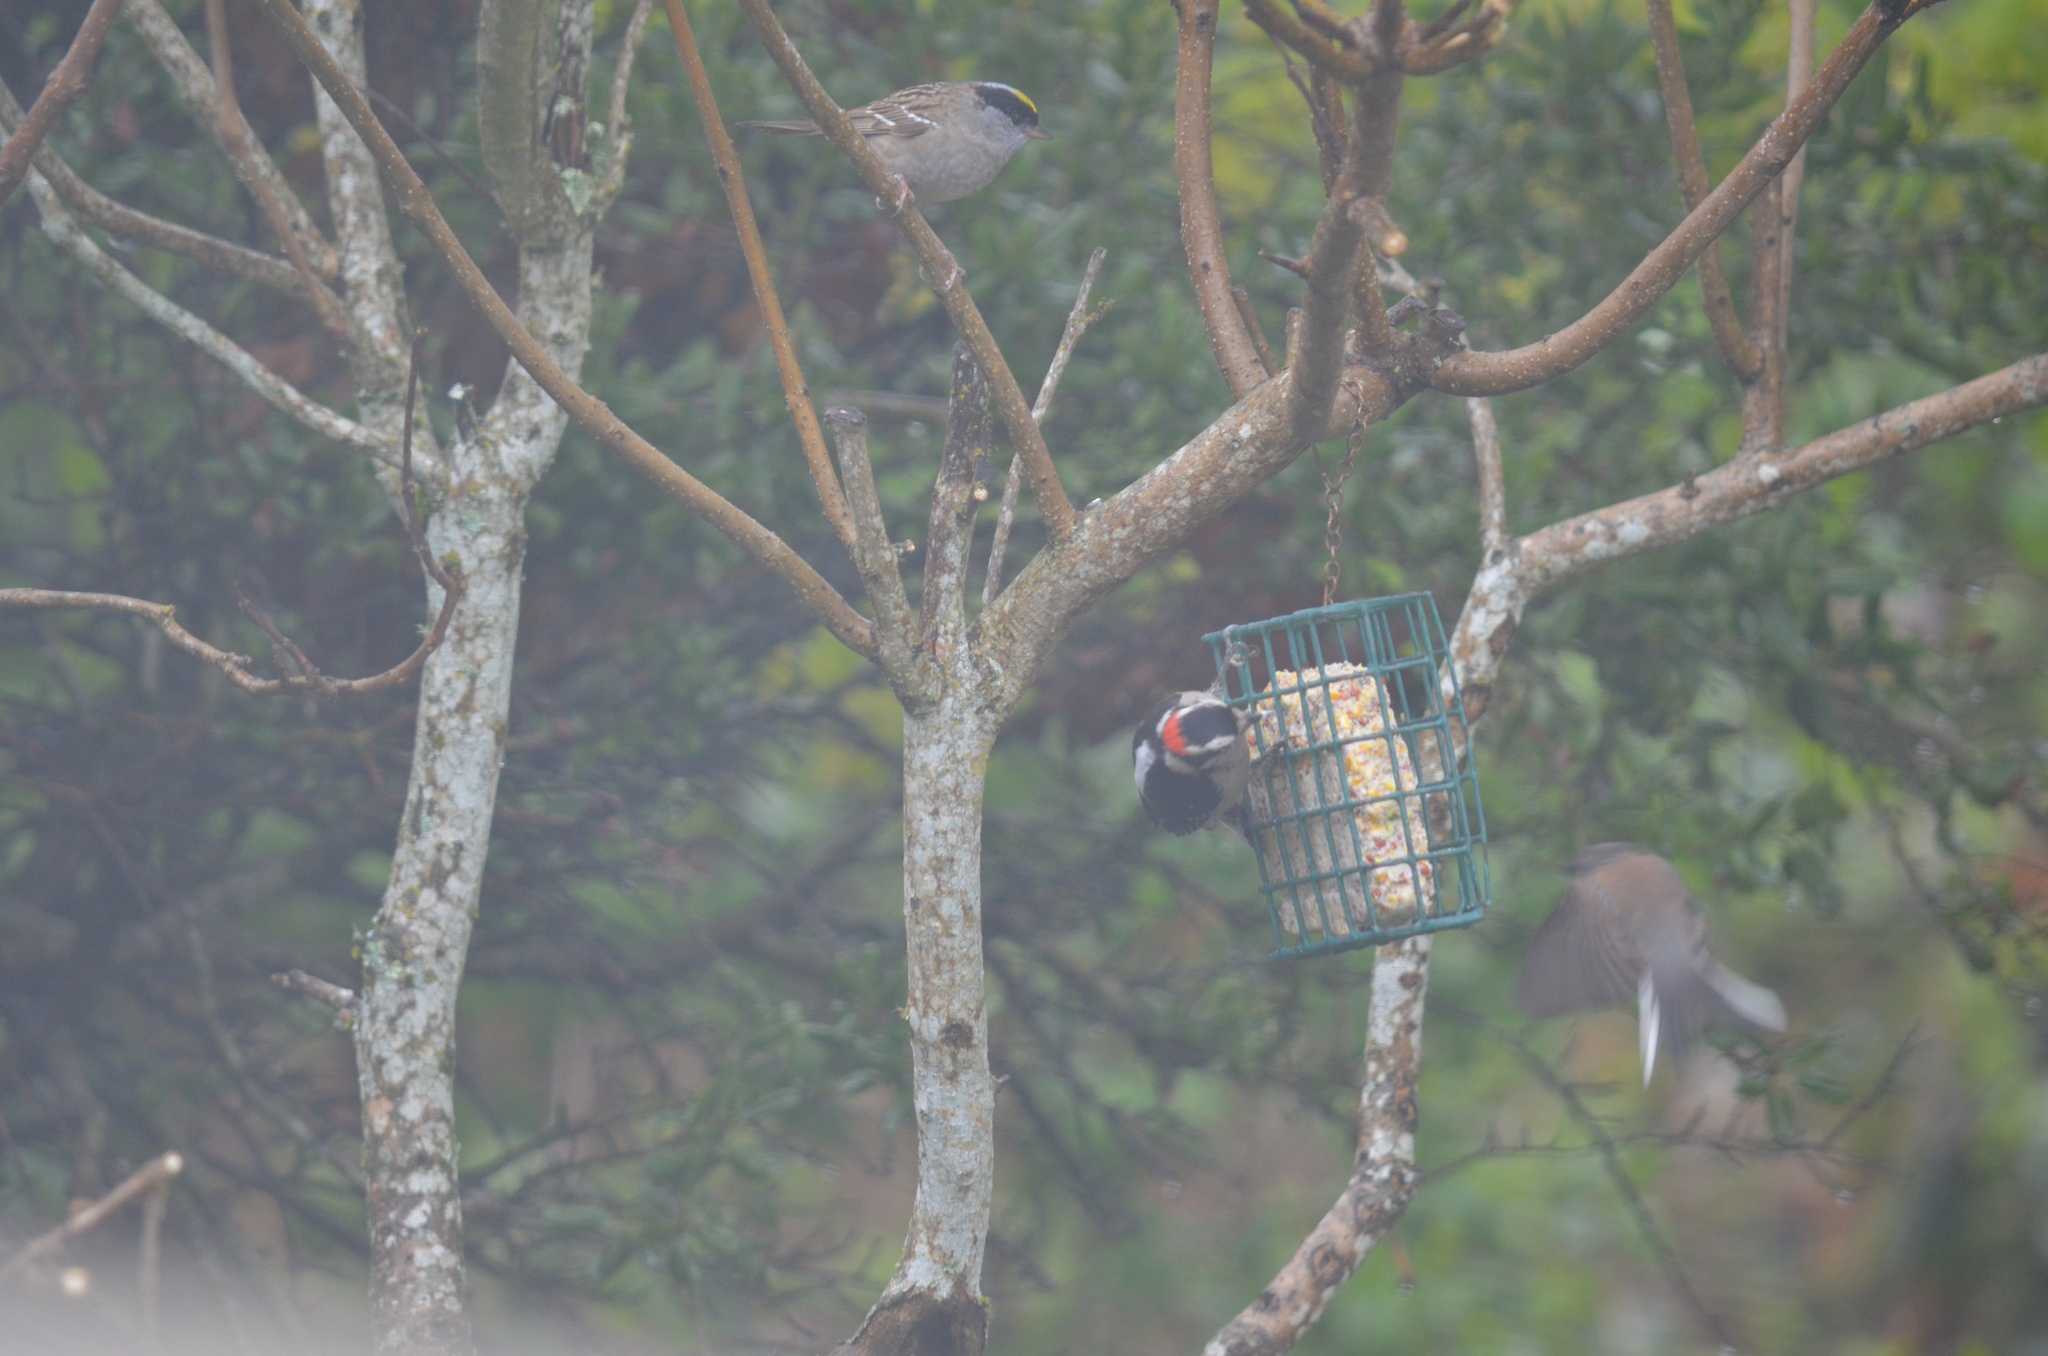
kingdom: Animalia
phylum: Chordata
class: Aves
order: Piciformes
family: Picidae
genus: Dryobates
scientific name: Dryobates pubescens
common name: Downy woodpecker
